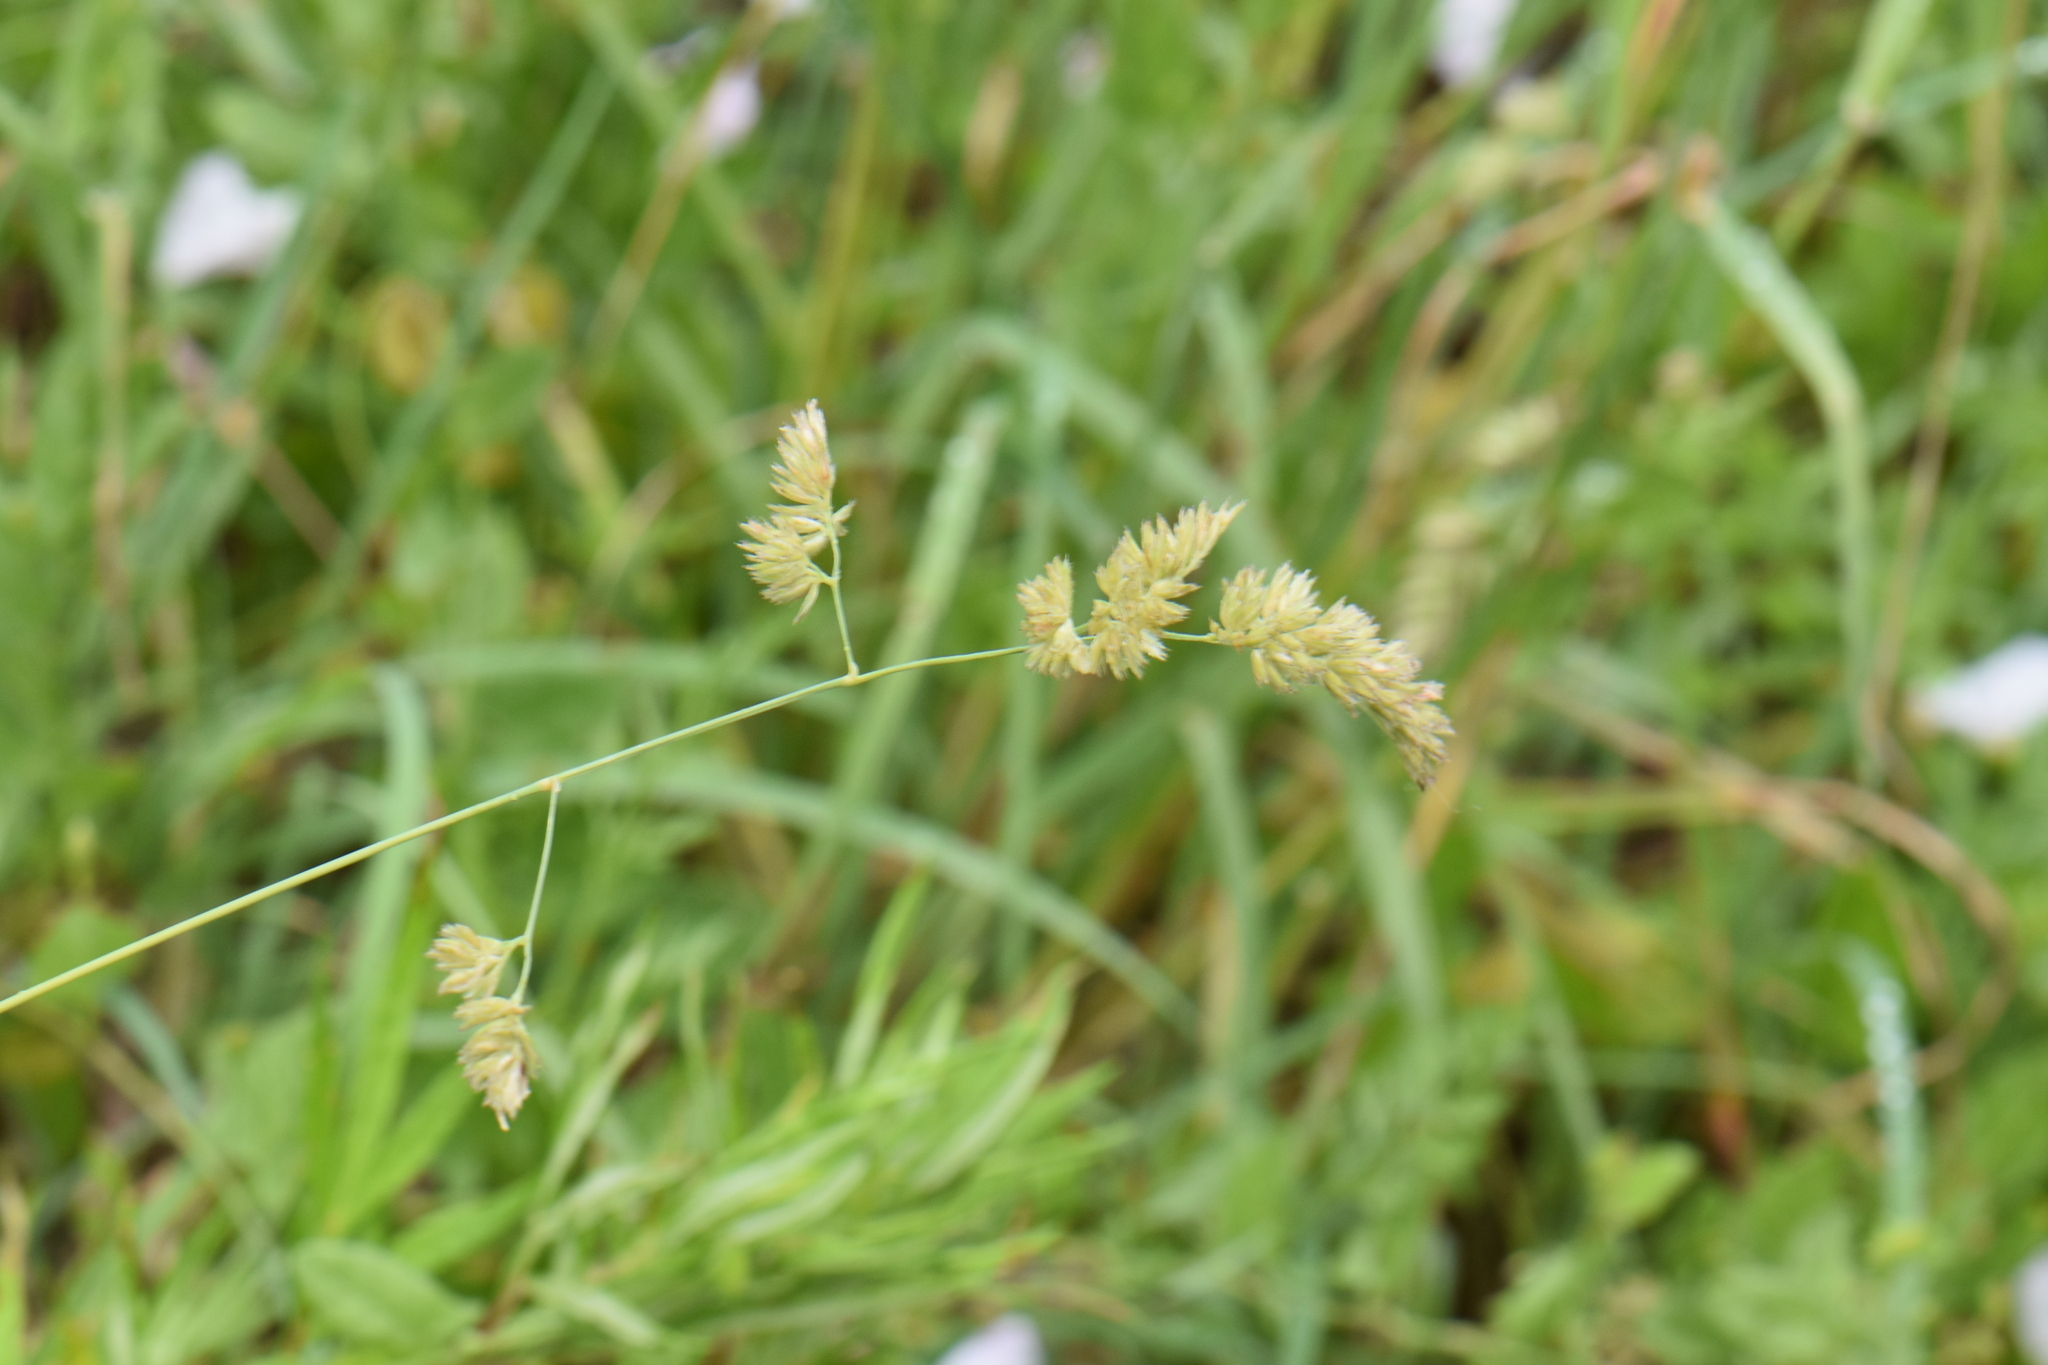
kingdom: Plantae
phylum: Tracheophyta
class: Liliopsida
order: Poales
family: Poaceae
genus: Dactylis
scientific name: Dactylis glomerata
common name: Orchardgrass
